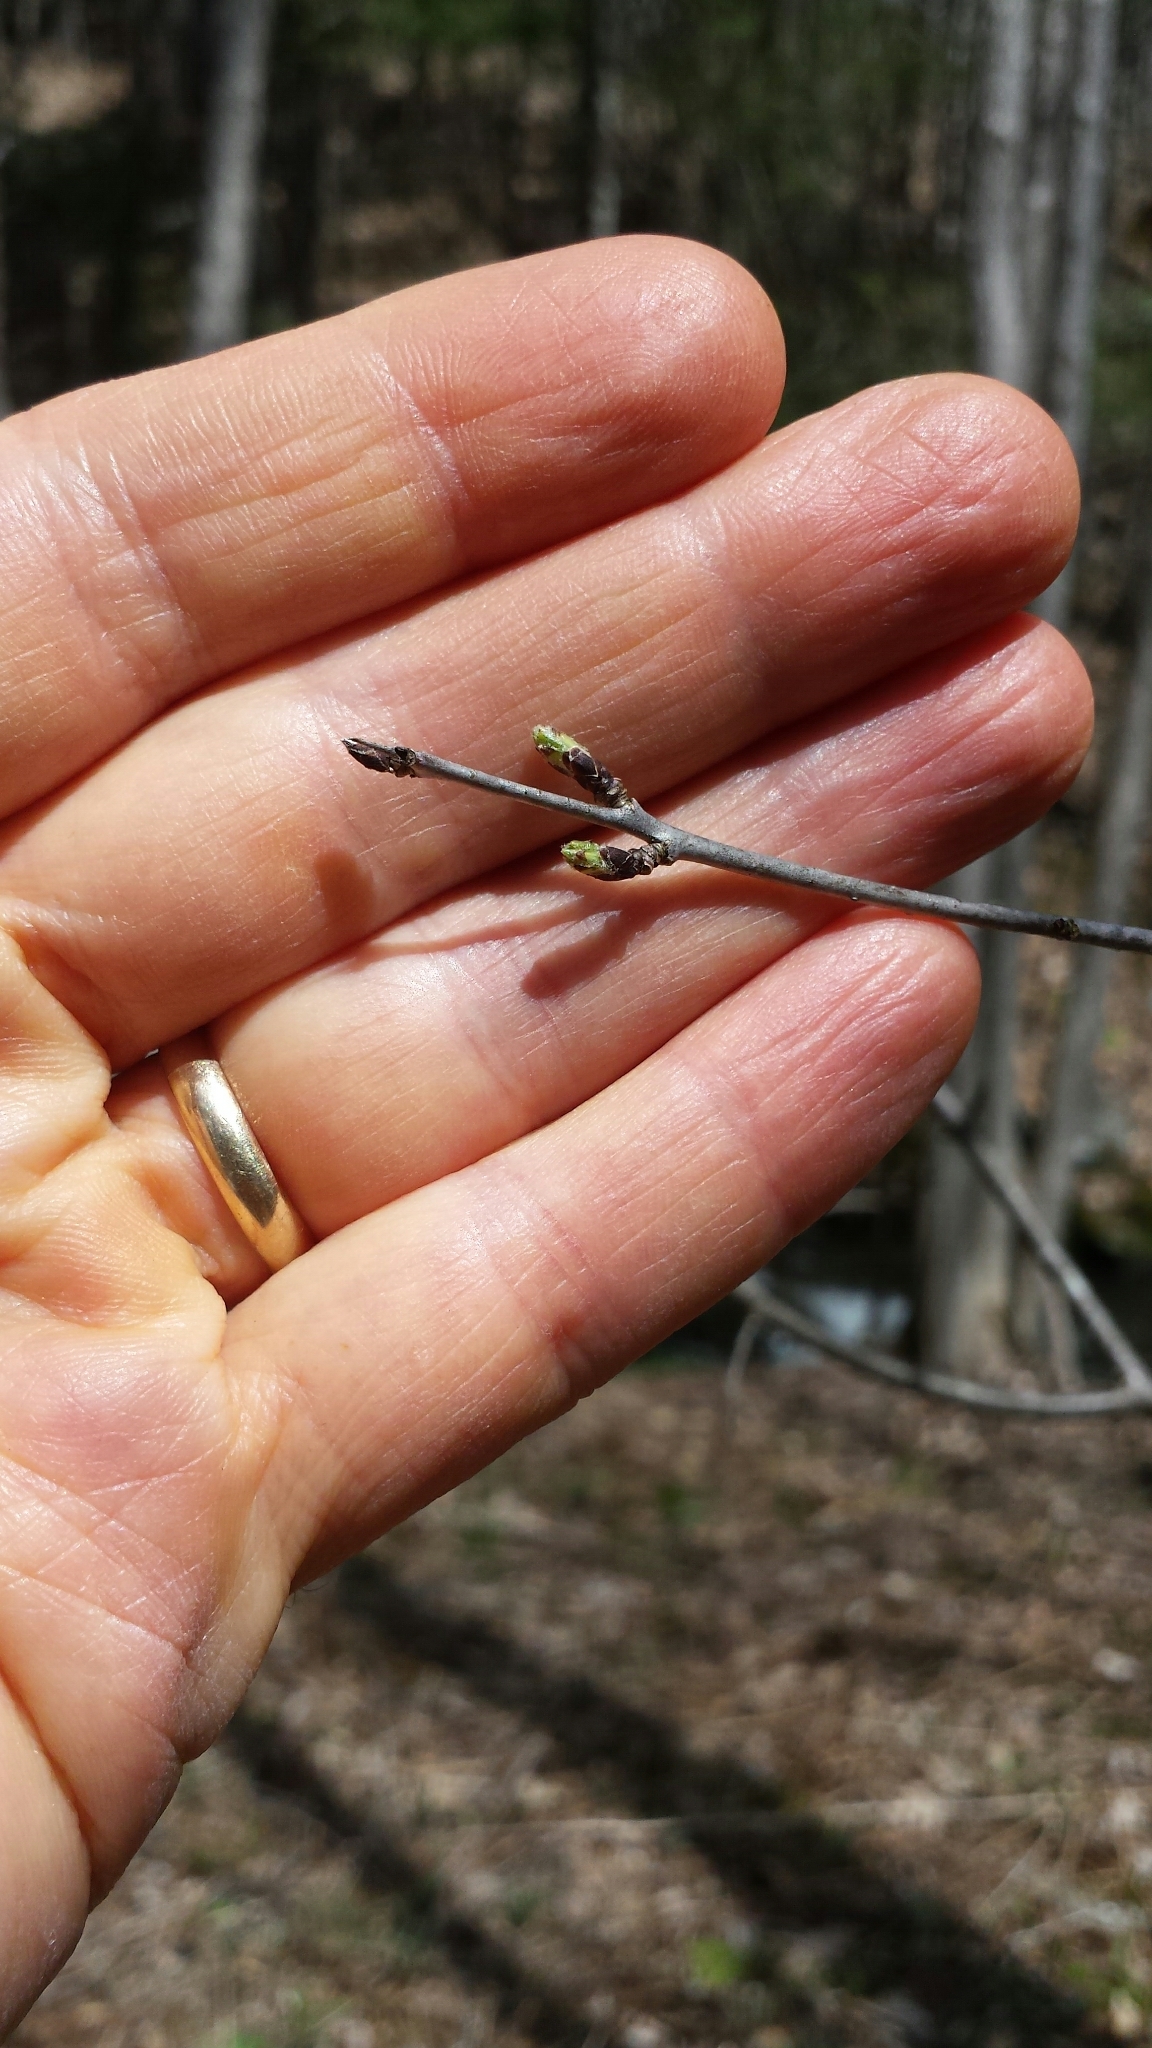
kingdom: Plantae
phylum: Tracheophyta
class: Magnoliopsida
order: Rosales
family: Rhamnaceae
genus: Rhamnus
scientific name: Rhamnus cathartica
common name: Common buckthorn
